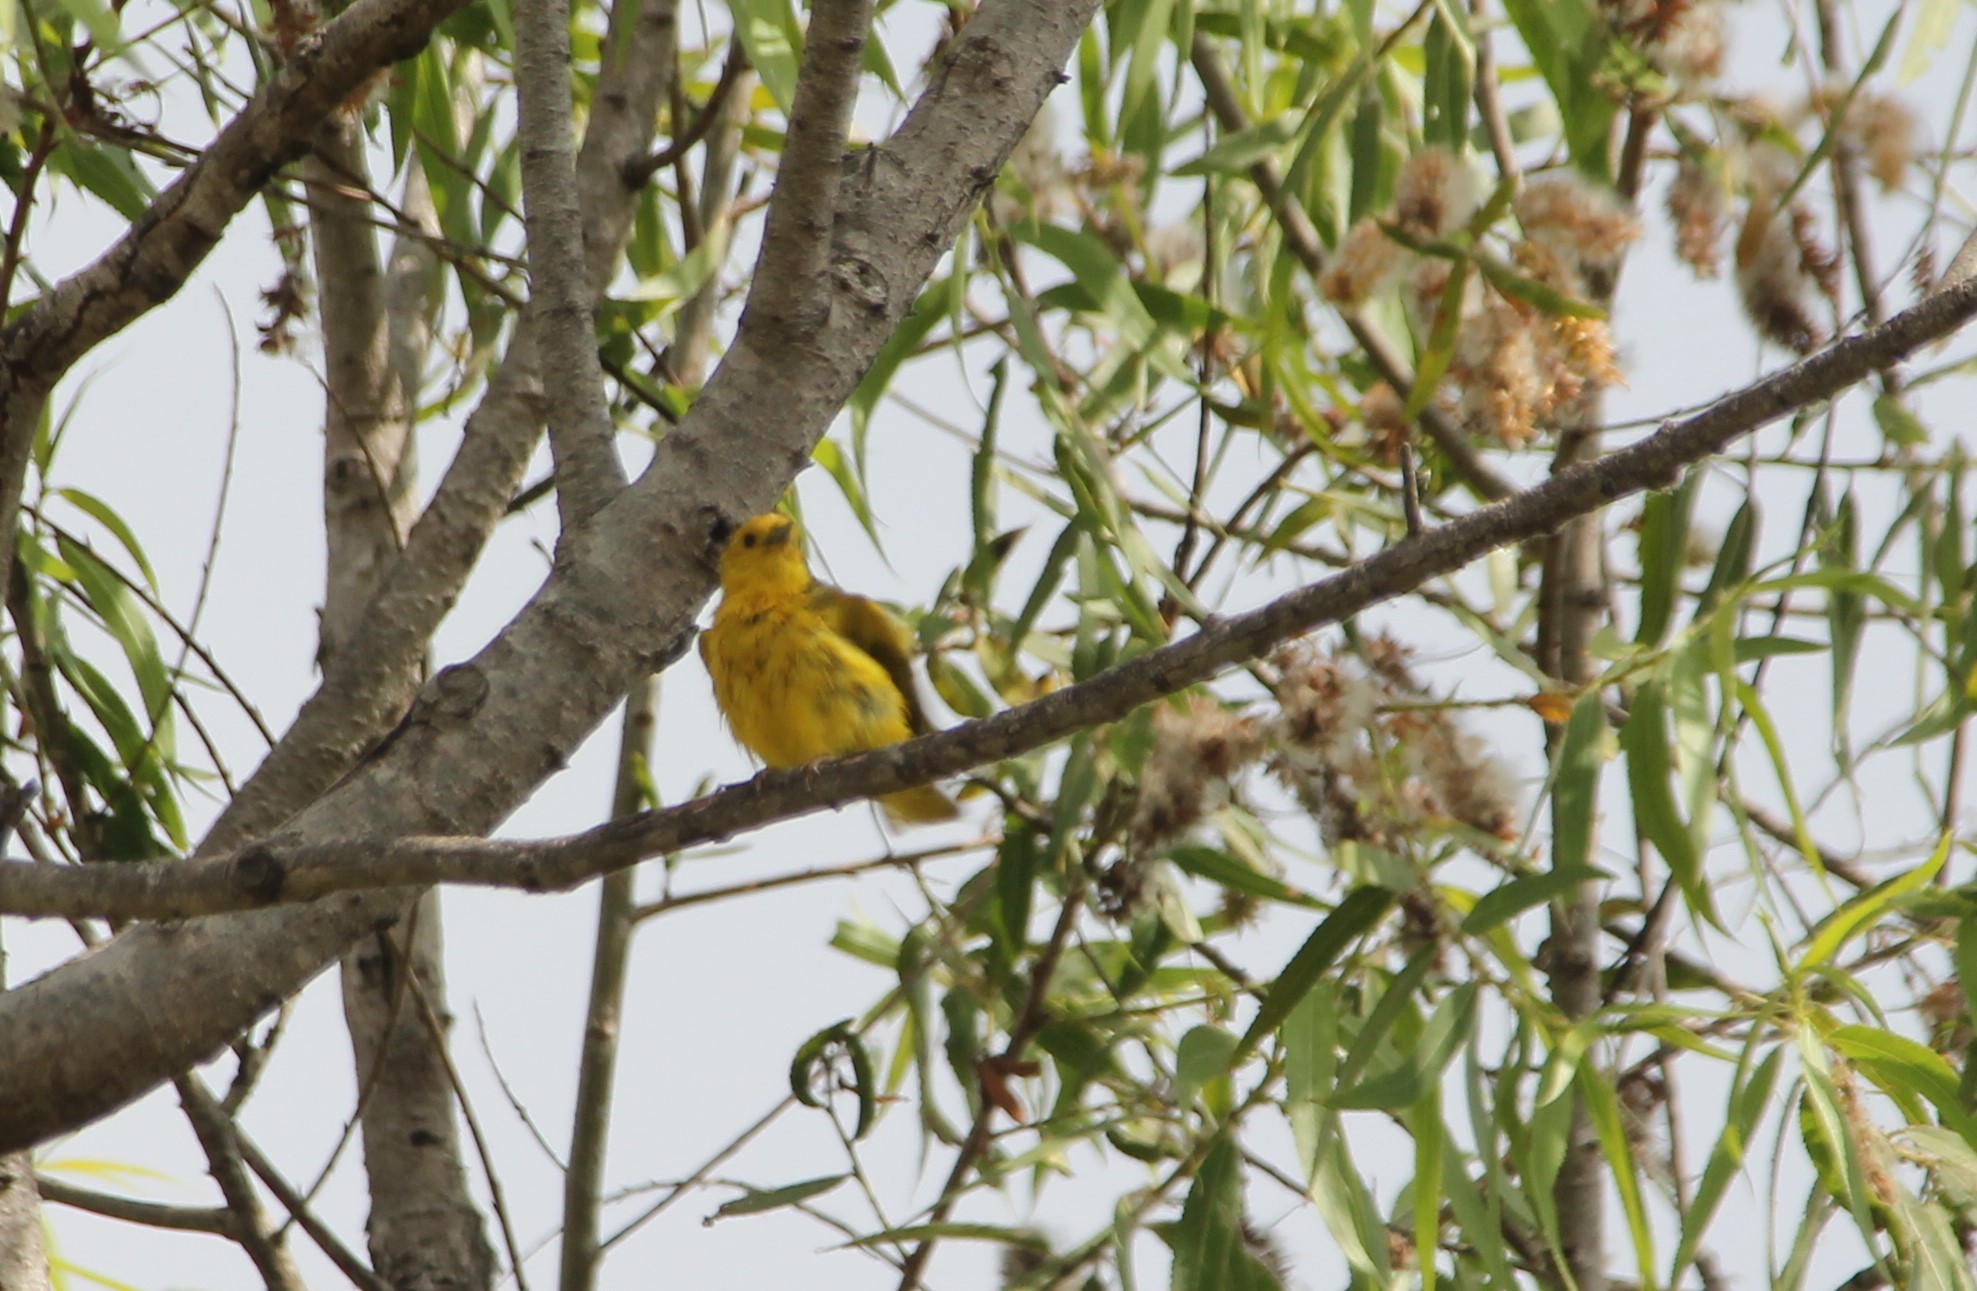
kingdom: Animalia
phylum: Chordata
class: Aves
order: Passeriformes
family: Parulidae
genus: Setophaga
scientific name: Setophaga petechia
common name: Yellow warbler
